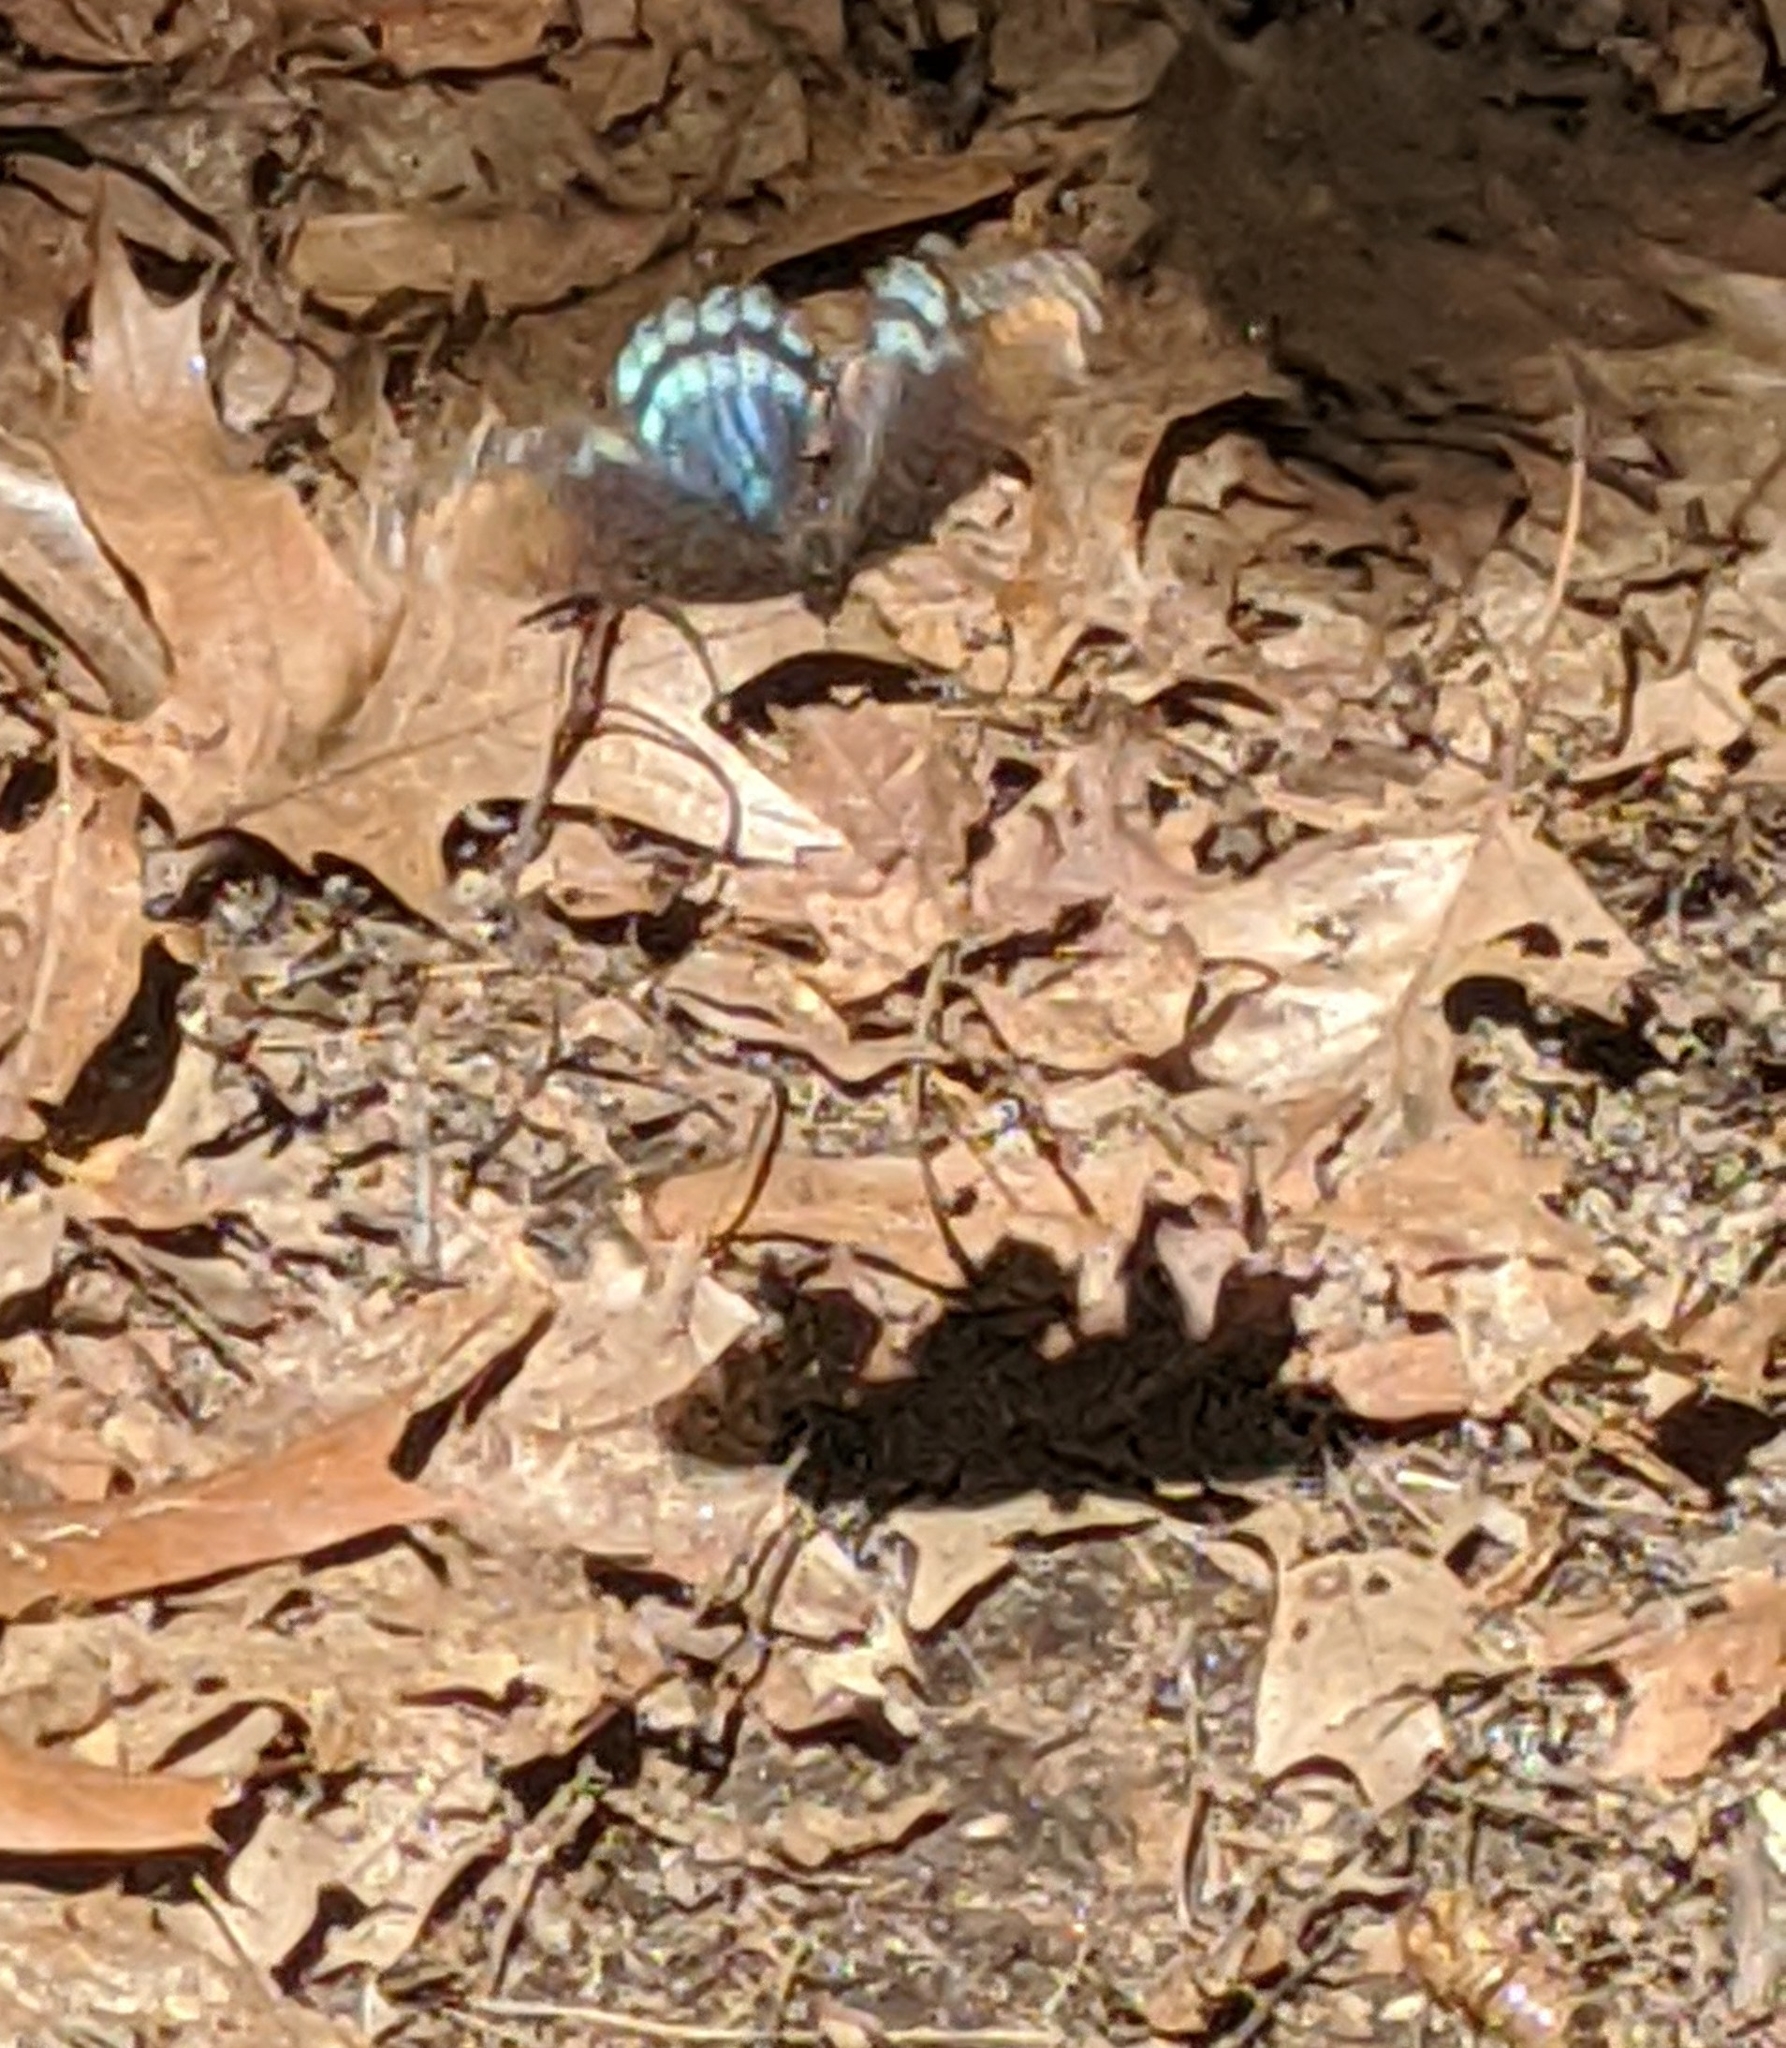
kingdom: Animalia
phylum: Arthropoda
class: Insecta
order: Lepidoptera
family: Nymphalidae
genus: Limenitis
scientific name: Limenitis astyanax
